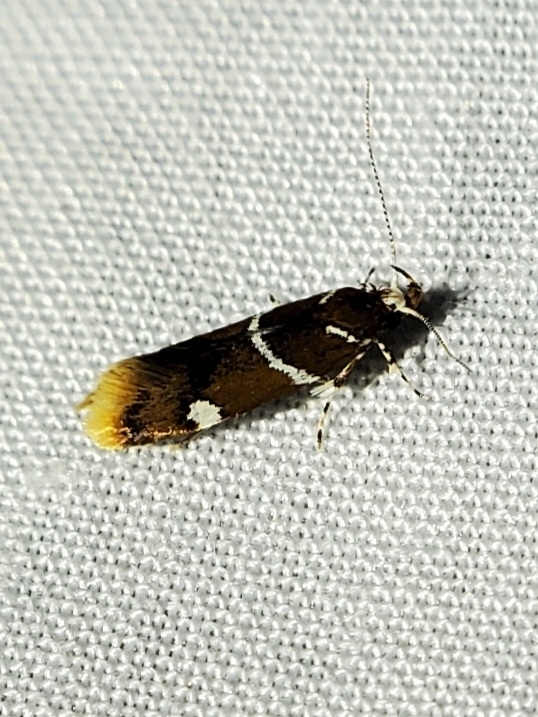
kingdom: Animalia
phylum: Arthropoda
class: Insecta
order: Lepidoptera
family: Oecophoridae
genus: Promalactis
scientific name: Promalactis suzukiella
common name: Moth
